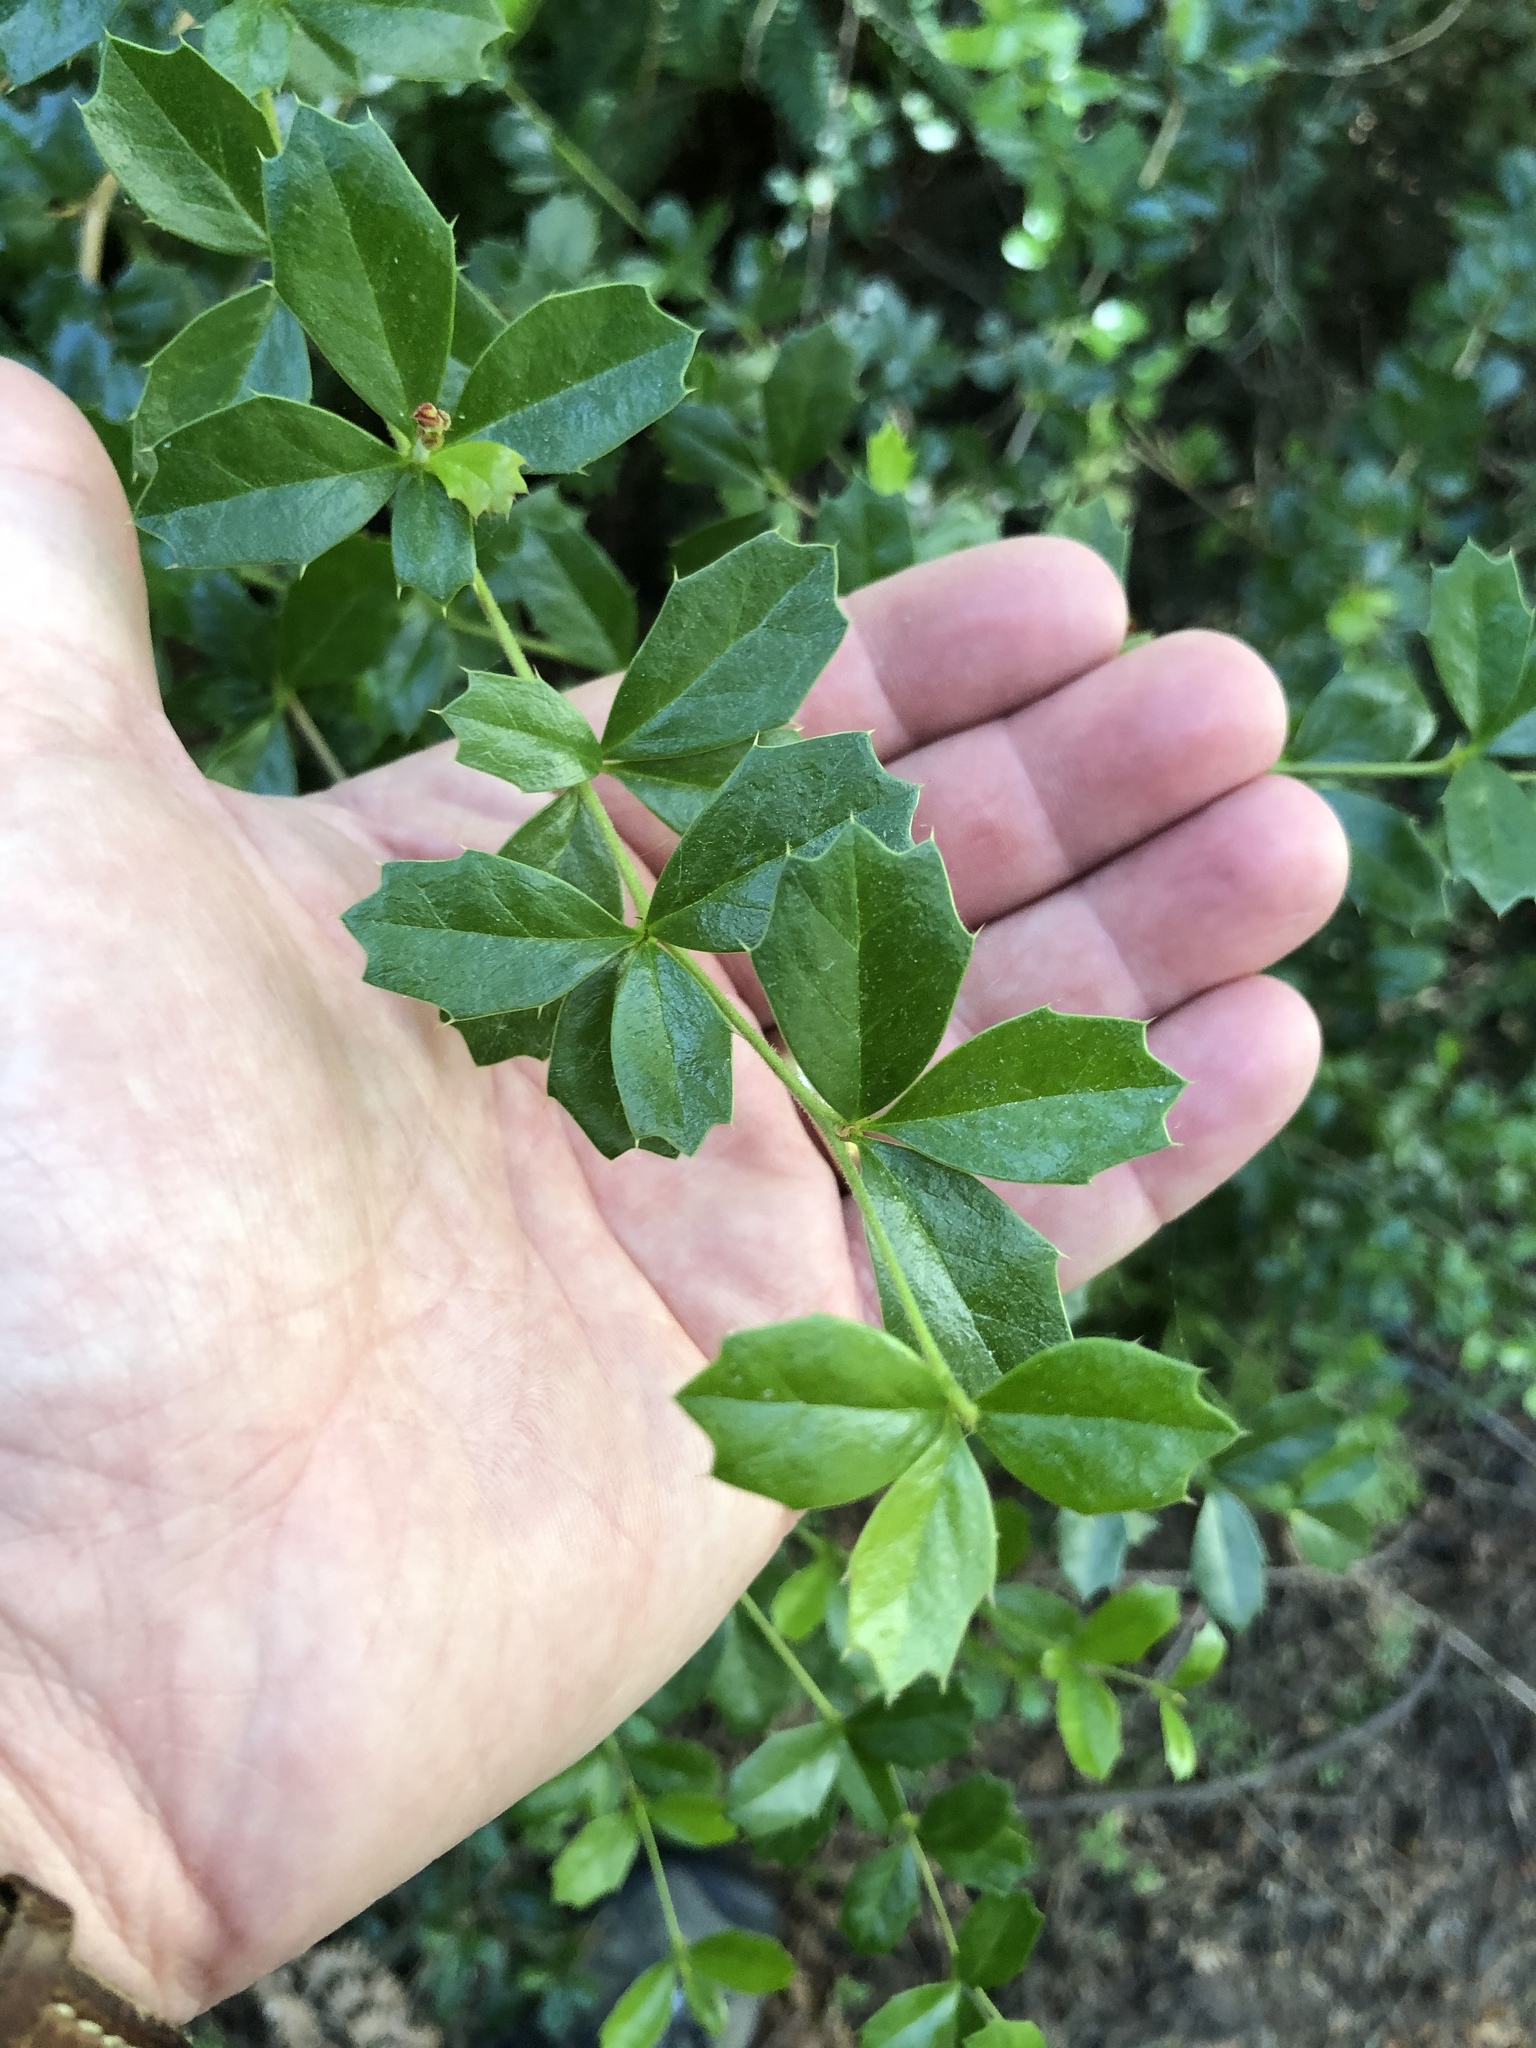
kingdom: Plantae
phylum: Tracheophyta
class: Magnoliopsida
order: Ranunculales
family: Berberidaceae
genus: Berberis
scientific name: Berberis darwinii
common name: Darwin's barberry
